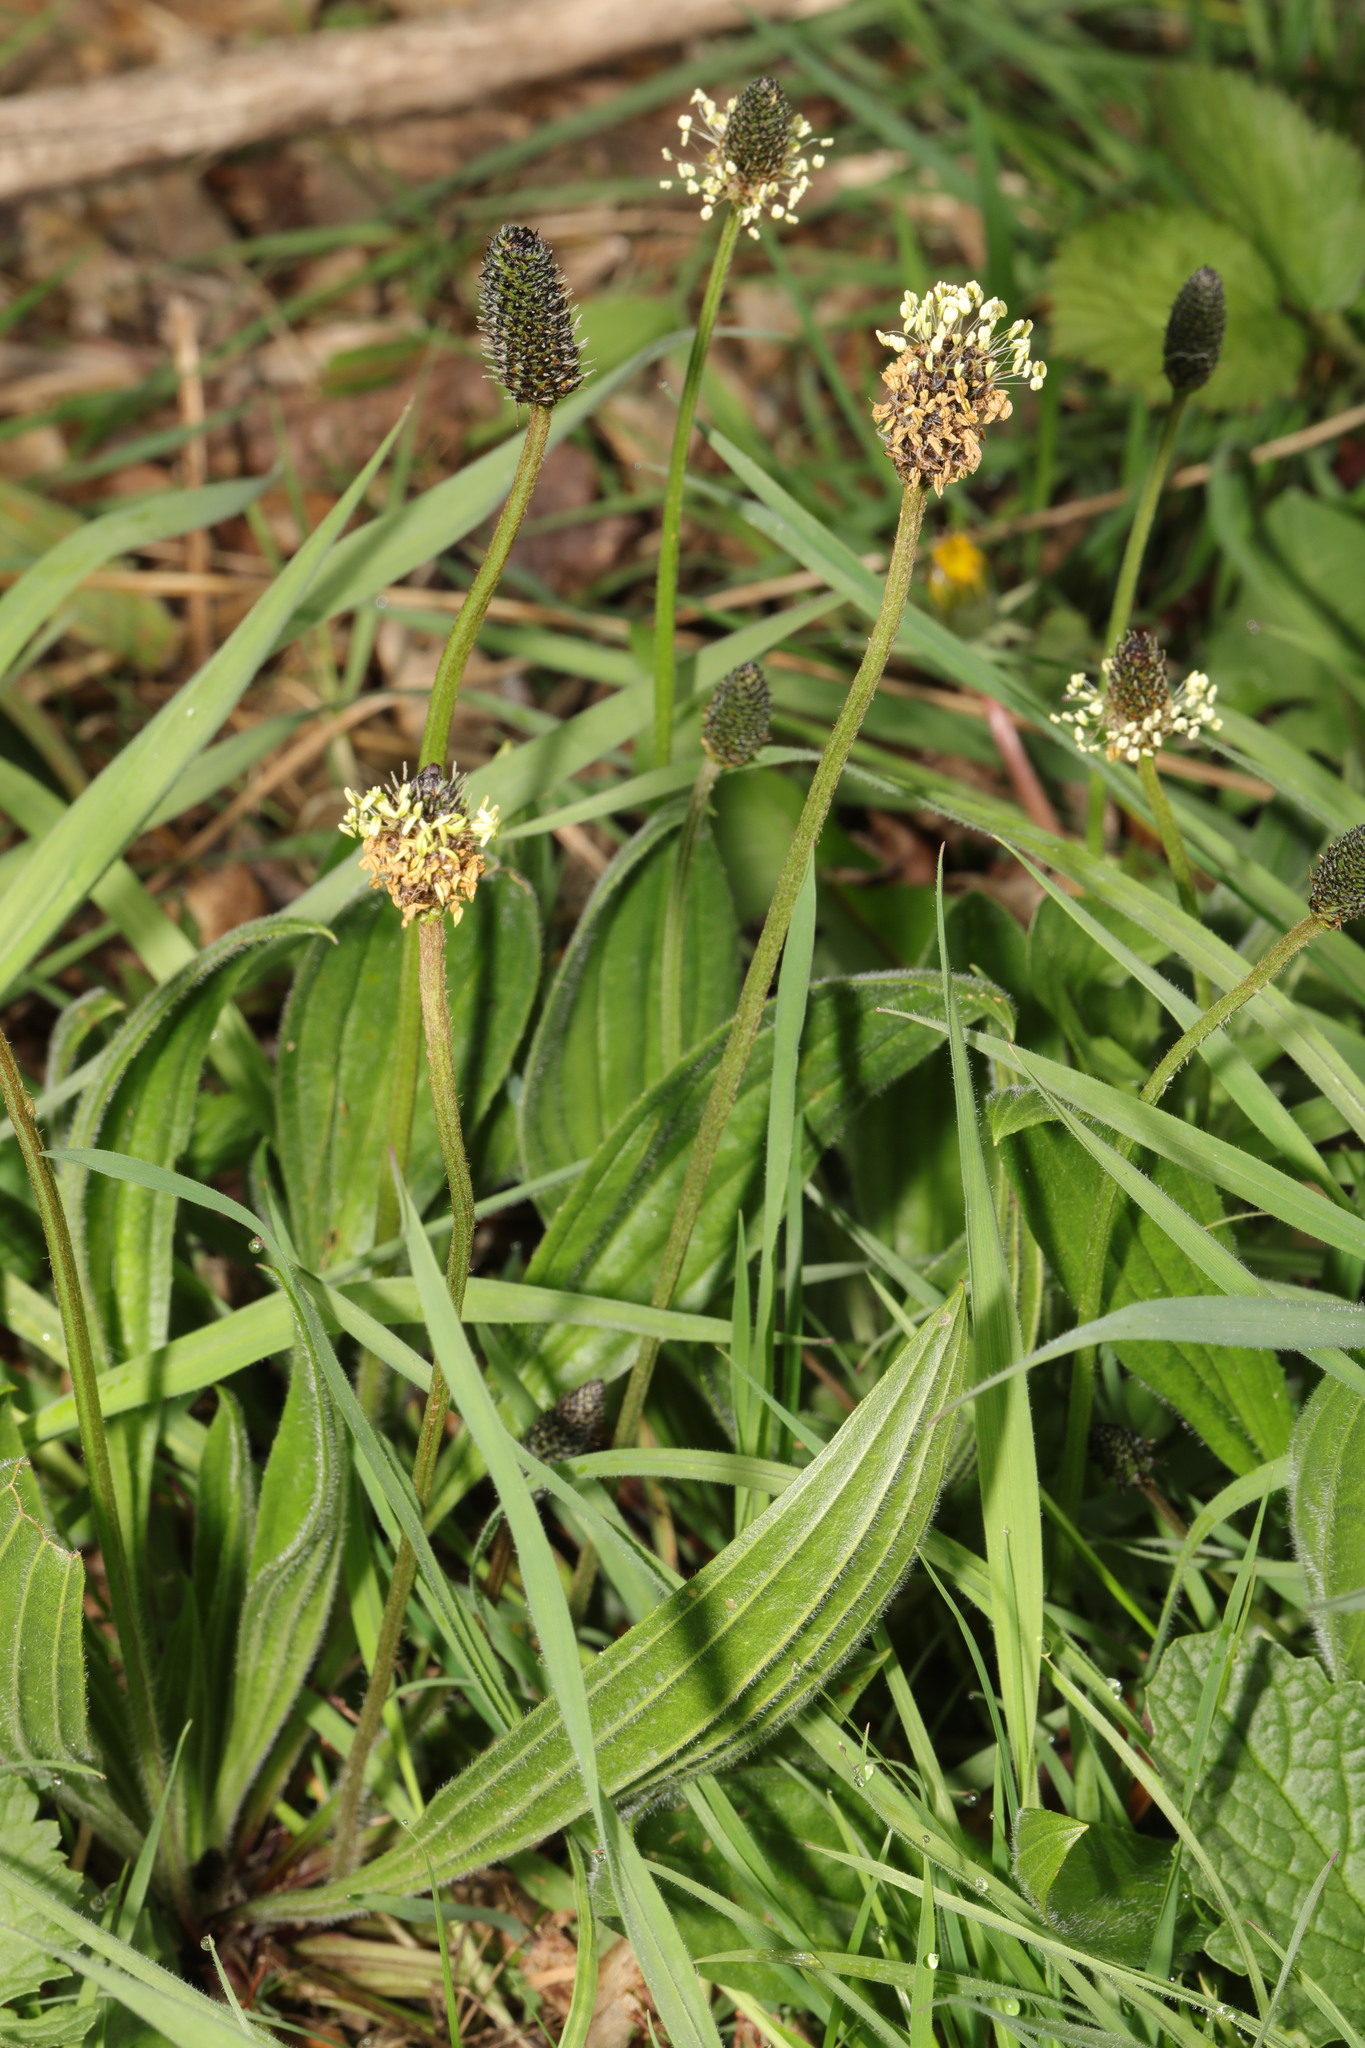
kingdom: Plantae
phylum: Tracheophyta
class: Magnoliopsida
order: Lamiales
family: Plantaginaceae
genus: Plantago
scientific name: Plantago lanceolata
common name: Ribwort plantain
